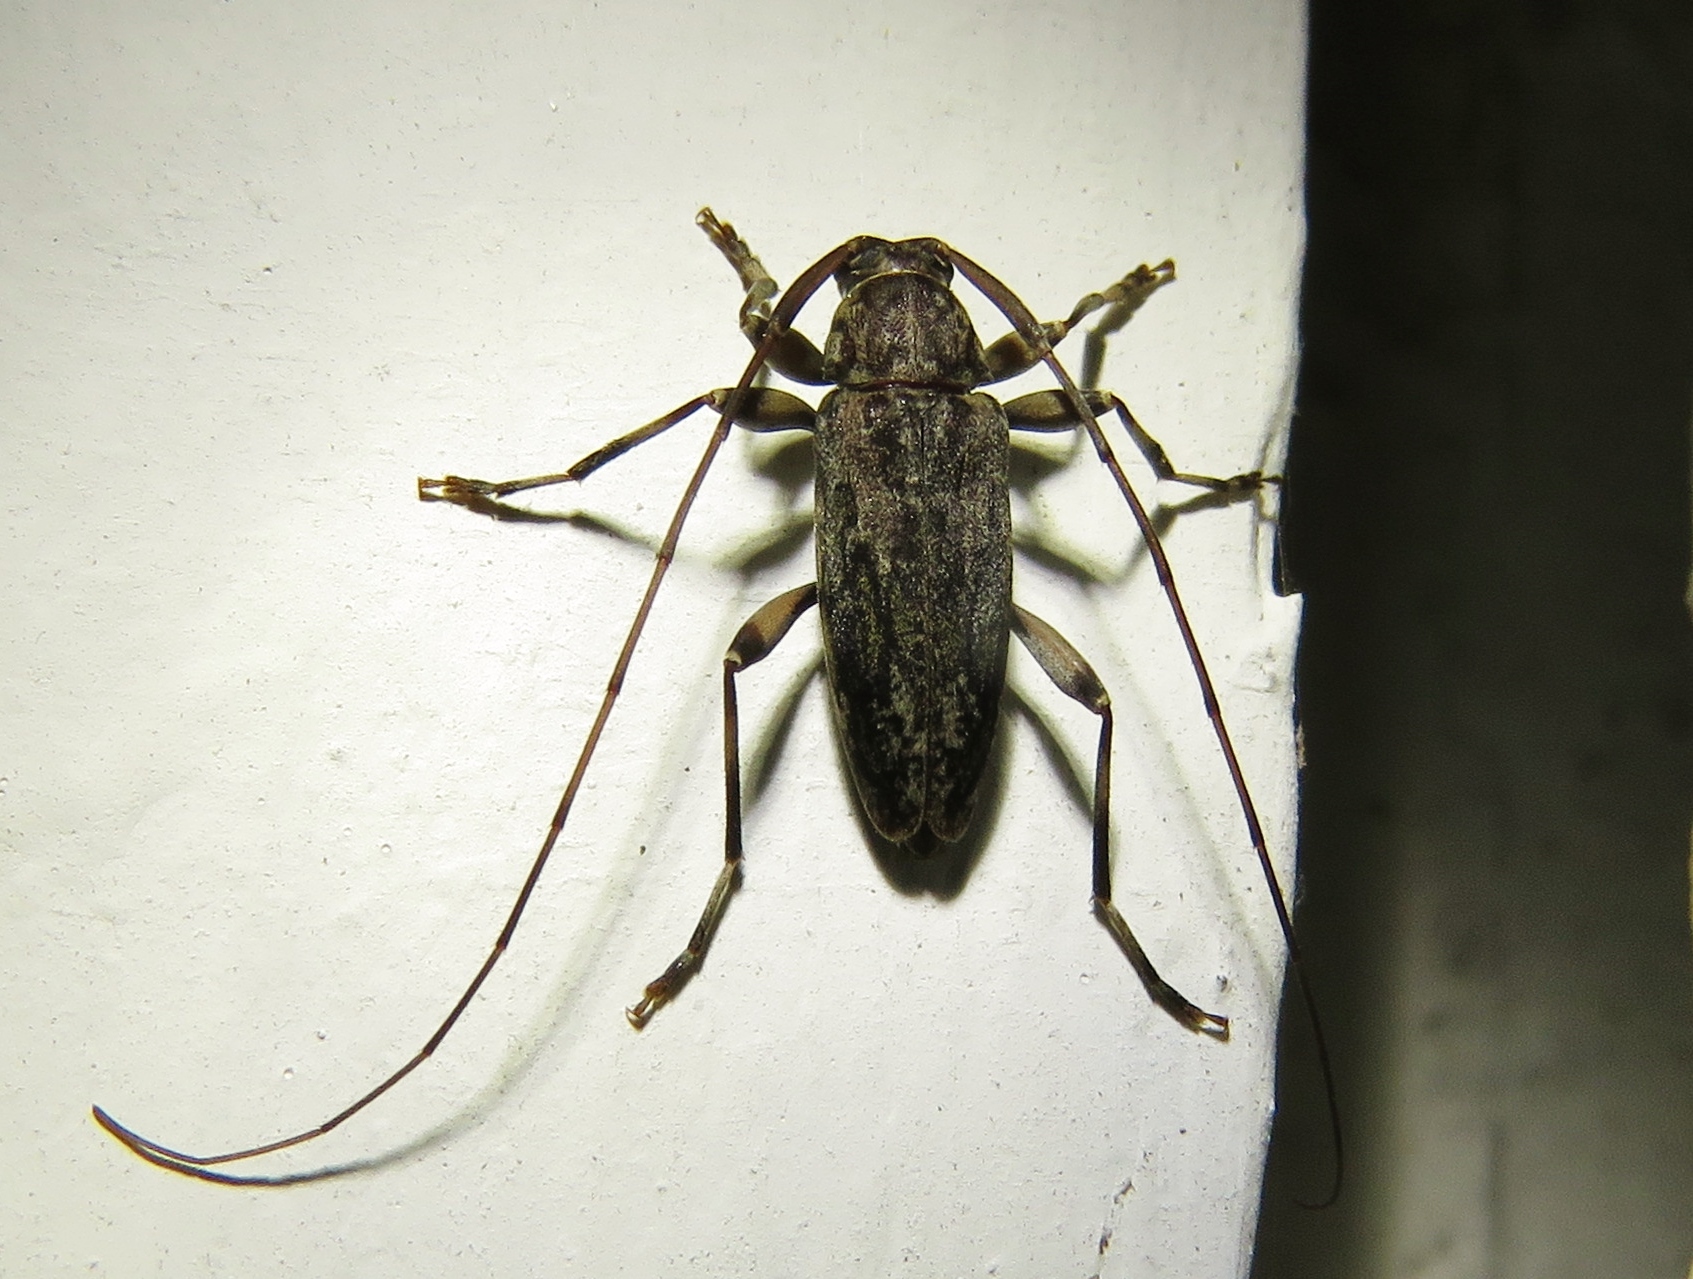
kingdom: Animalia
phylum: Arthropoda
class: Insecta
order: Coleoptera
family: Cerambycidae
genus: Lepturges
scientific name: Lepturges confluens
